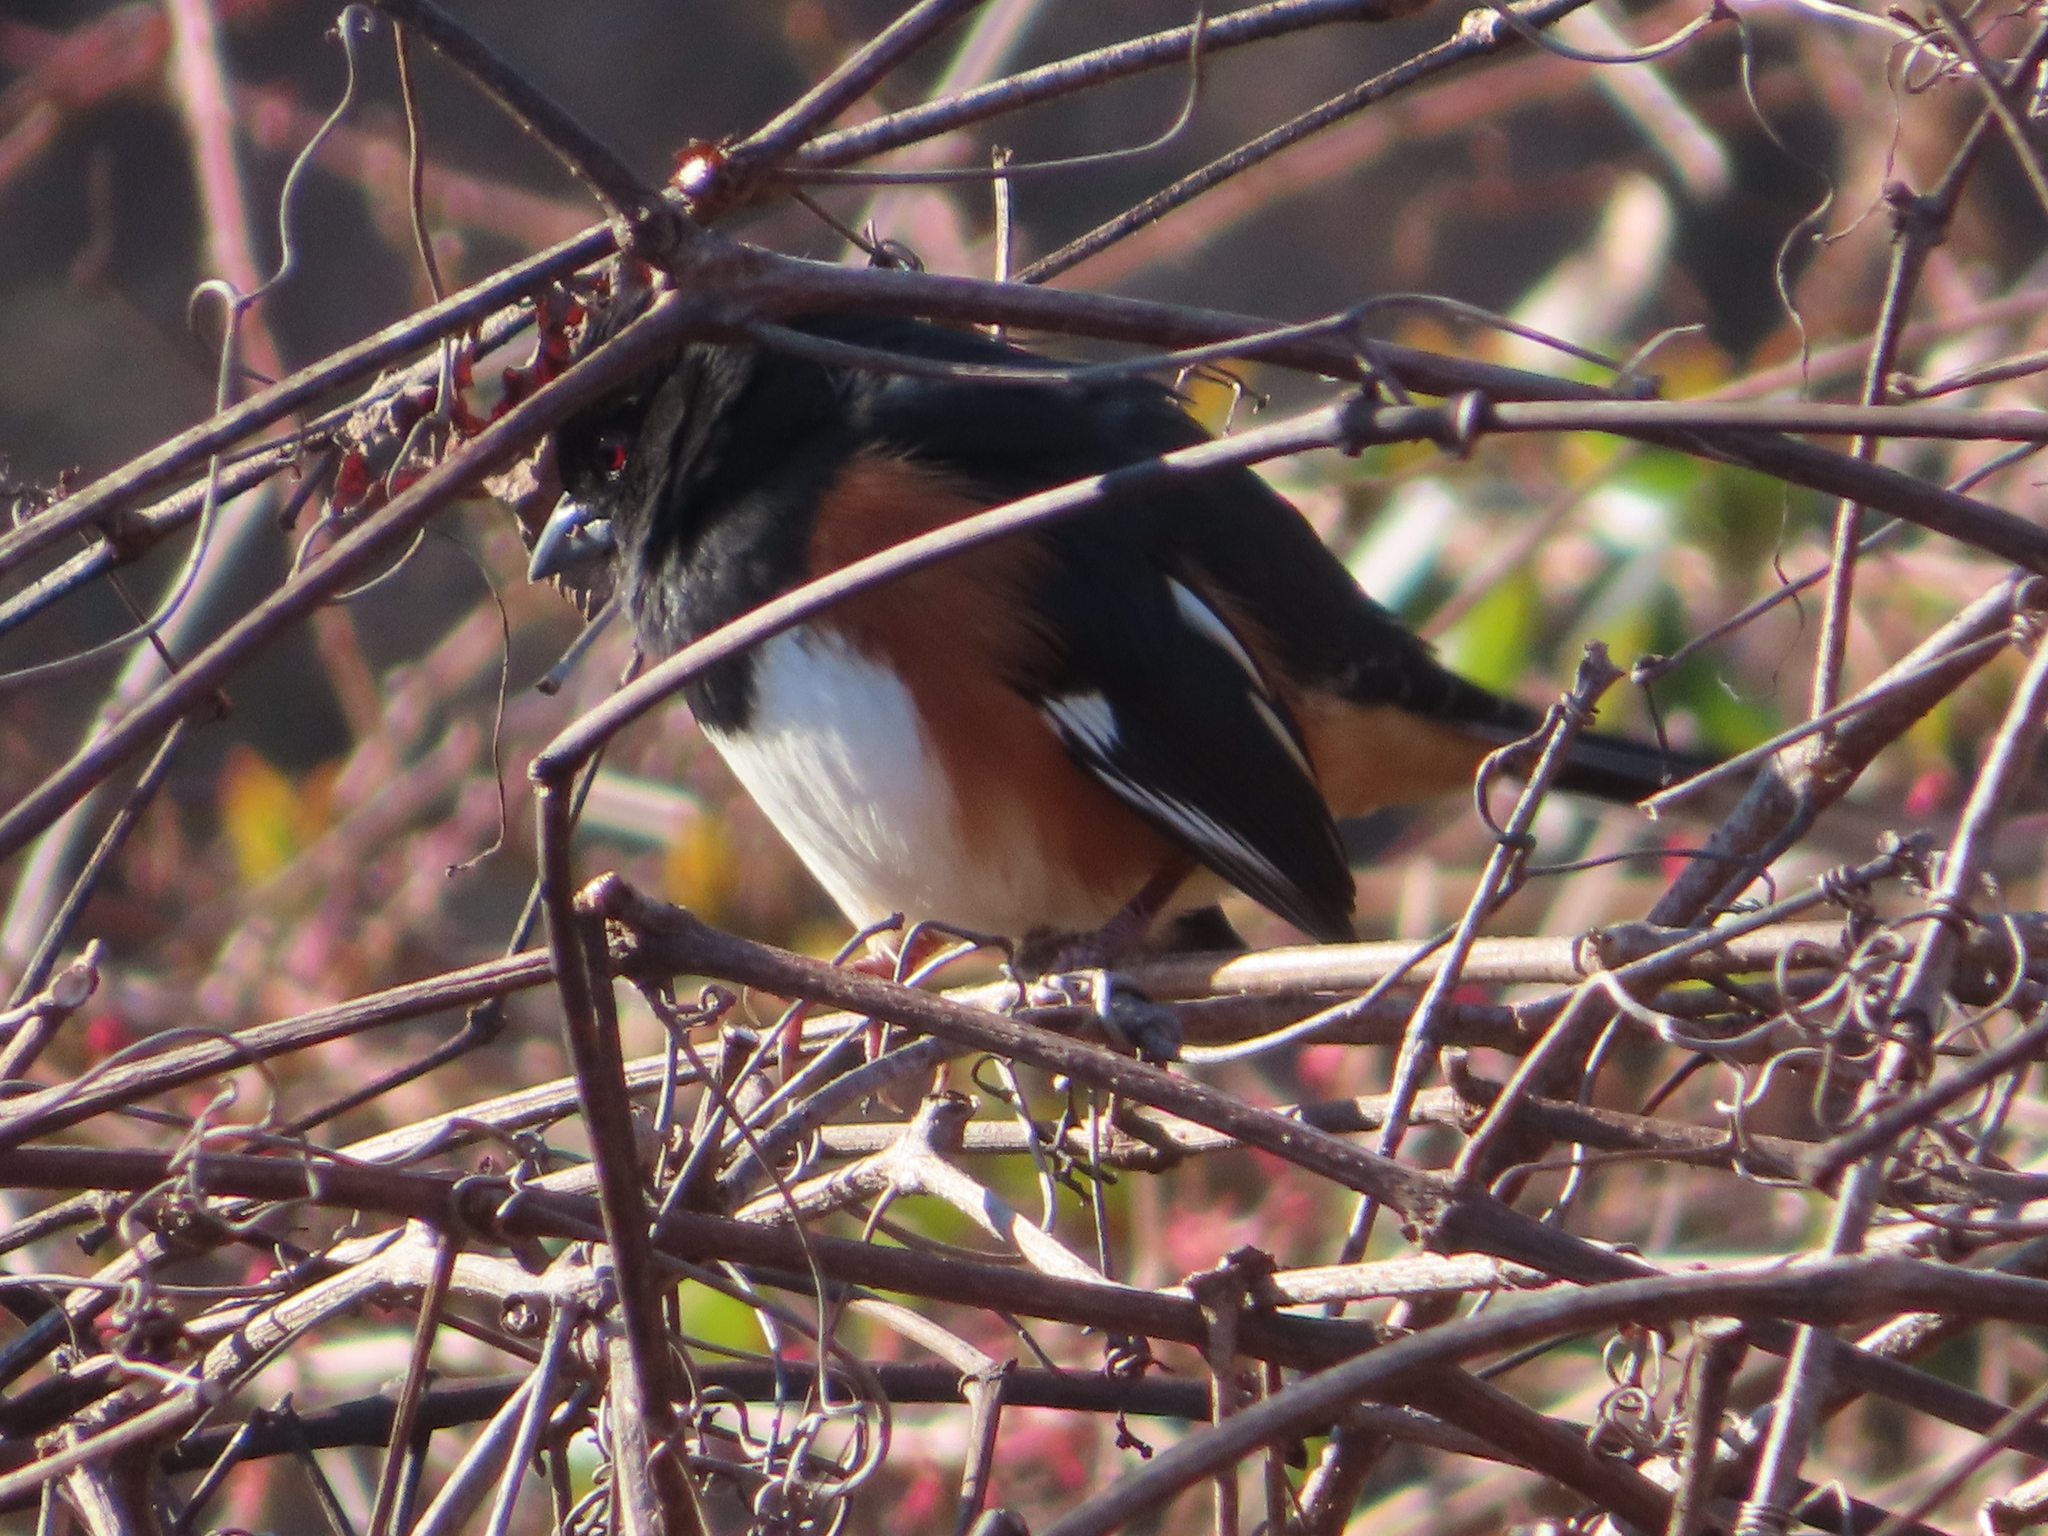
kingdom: Animalia
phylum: Chordata
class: Aves
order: Passeriformes
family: Passerellidae
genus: Pipilo
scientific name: Pipilo erythrophthalmus
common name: Eastern towhee
